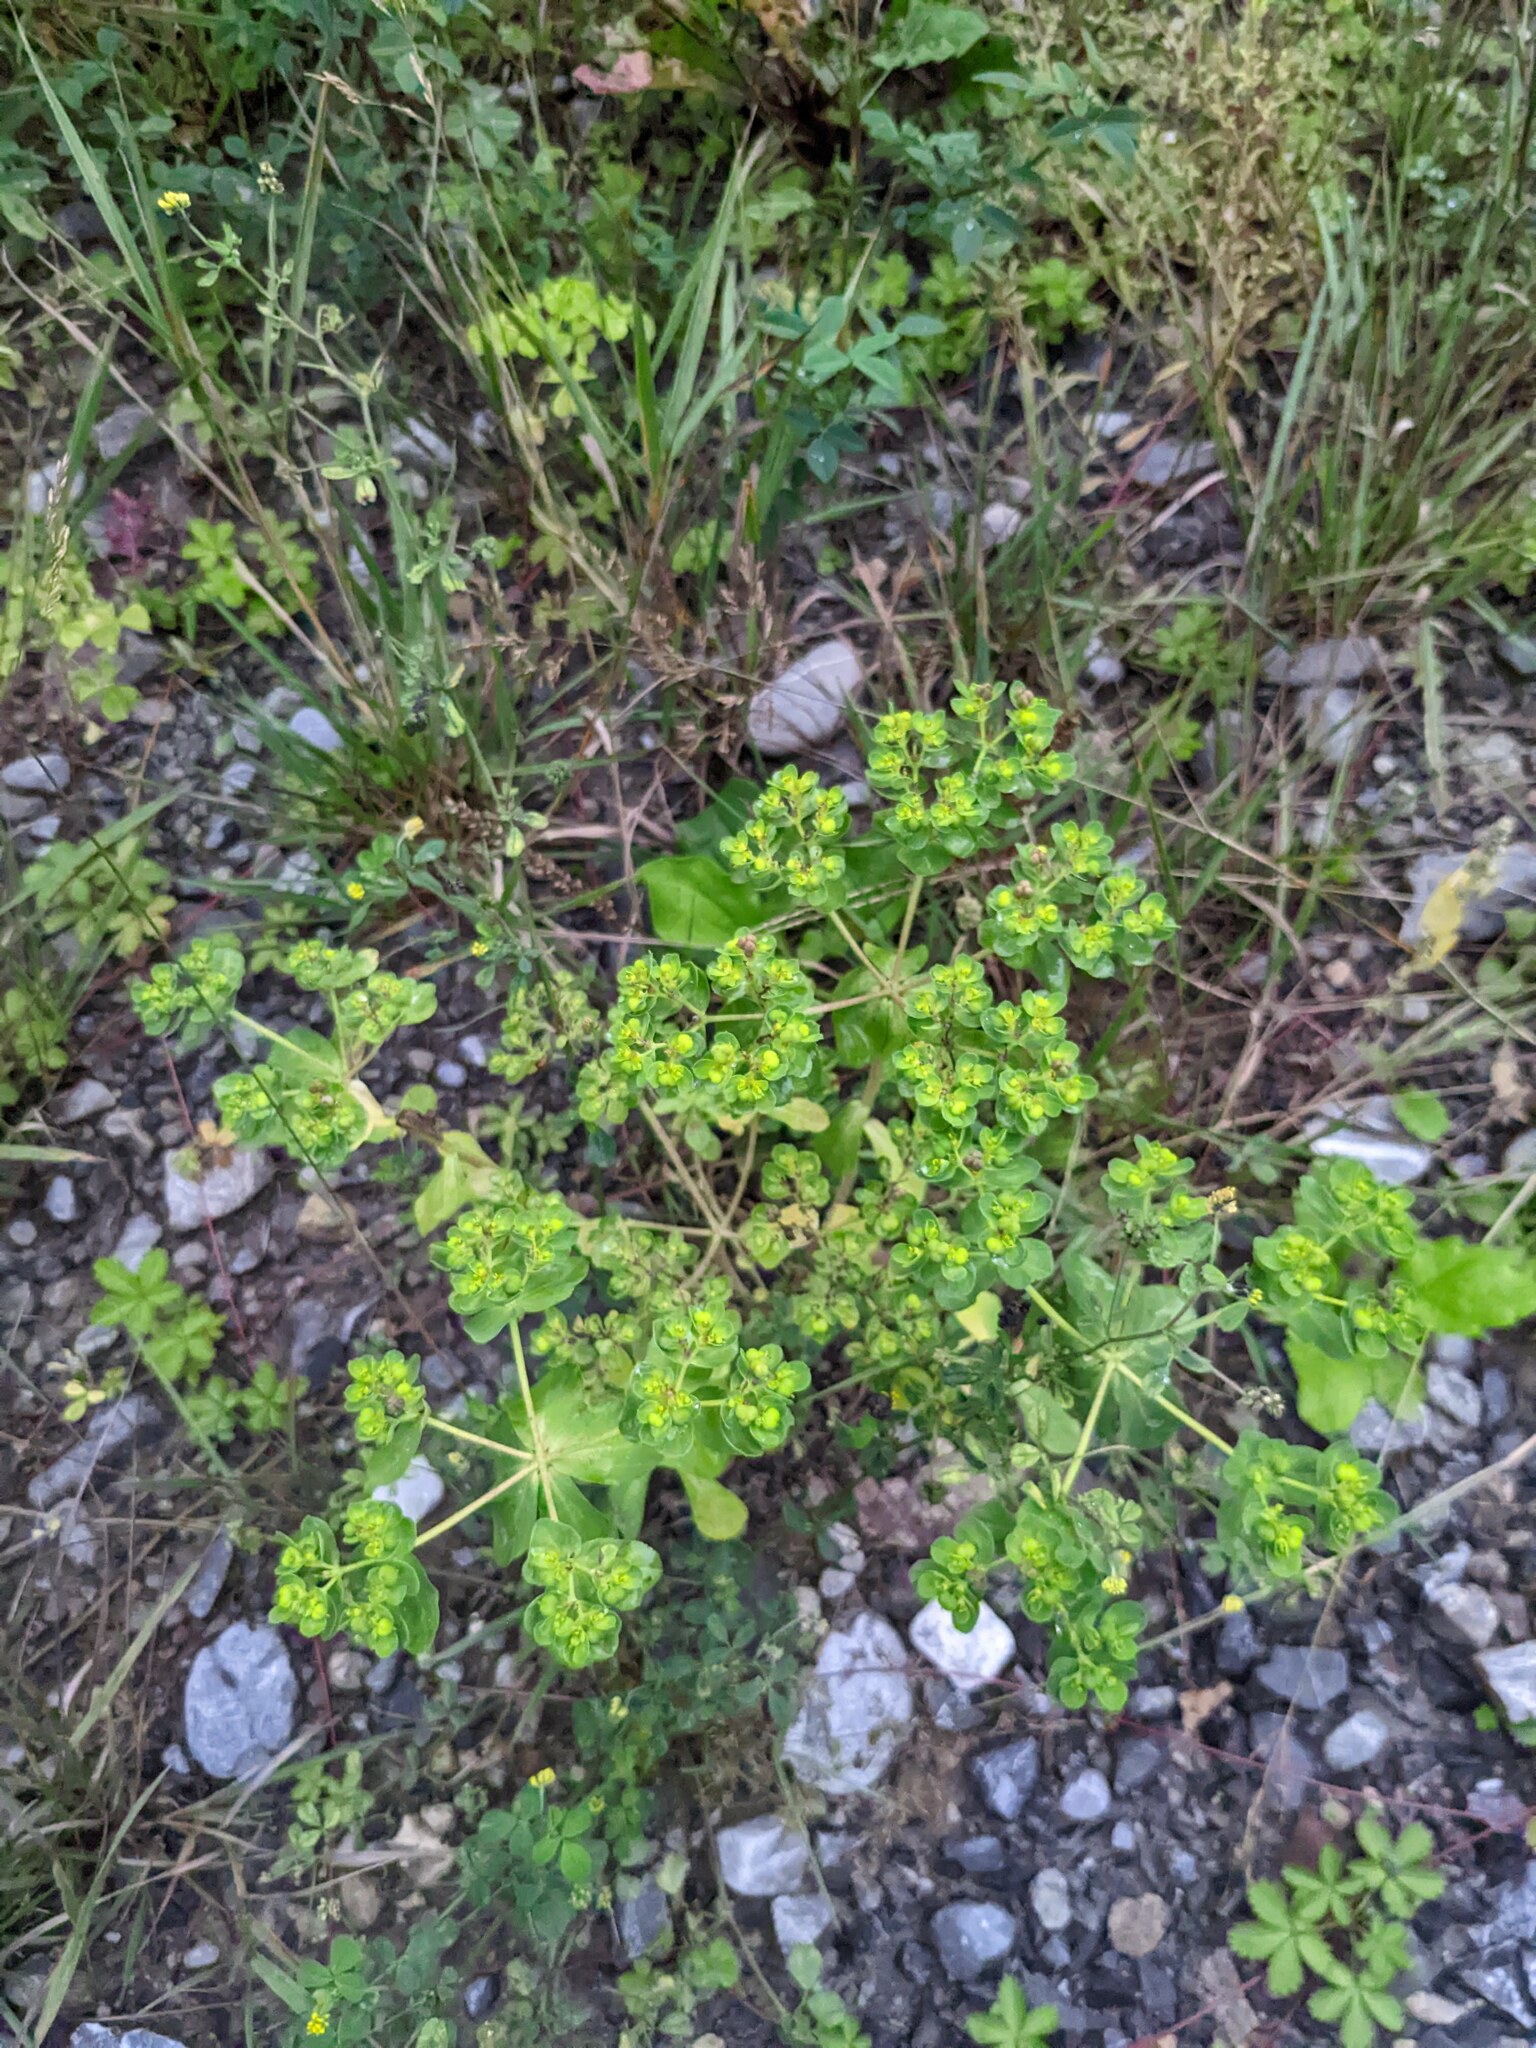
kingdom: Plantae
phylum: Tracheophyta
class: Magnoliopsida
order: Malpighiales
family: Euphorbiaceae
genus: Euphorbia
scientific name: Euphorbia helioscopia
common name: Sun spurge
